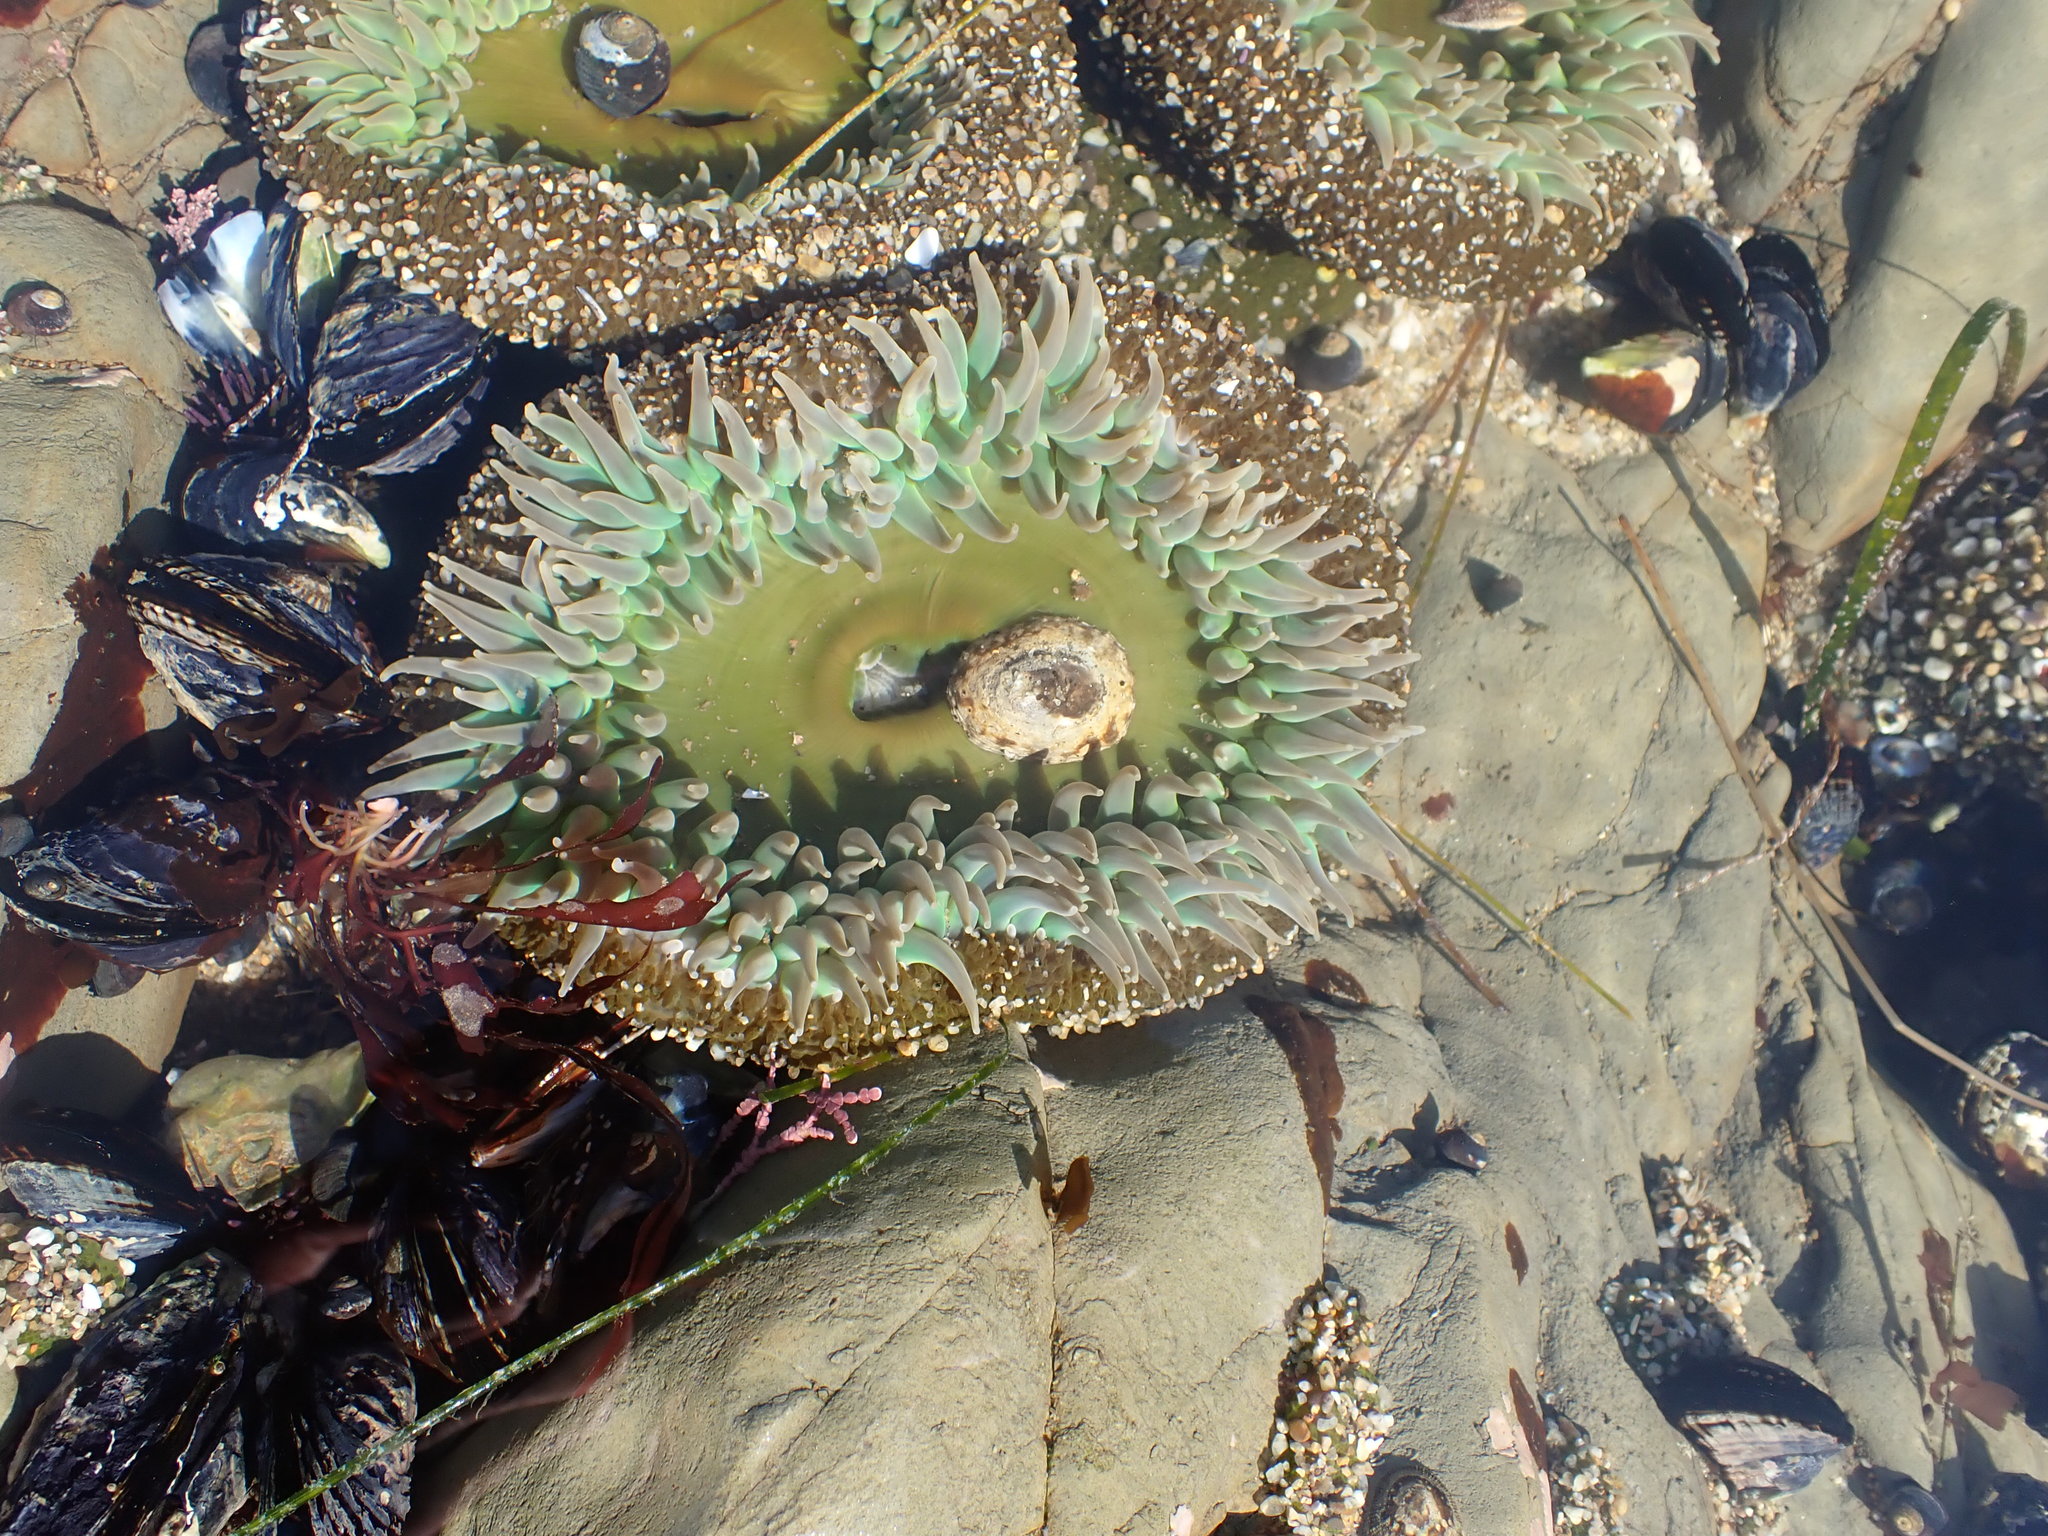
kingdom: Animalia
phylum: Cnidaria
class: Anthozoa
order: Actiniaria
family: Actiniidae
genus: Anthopleura
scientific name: Anthopleura xanthogrammica
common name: Giant green anemone
